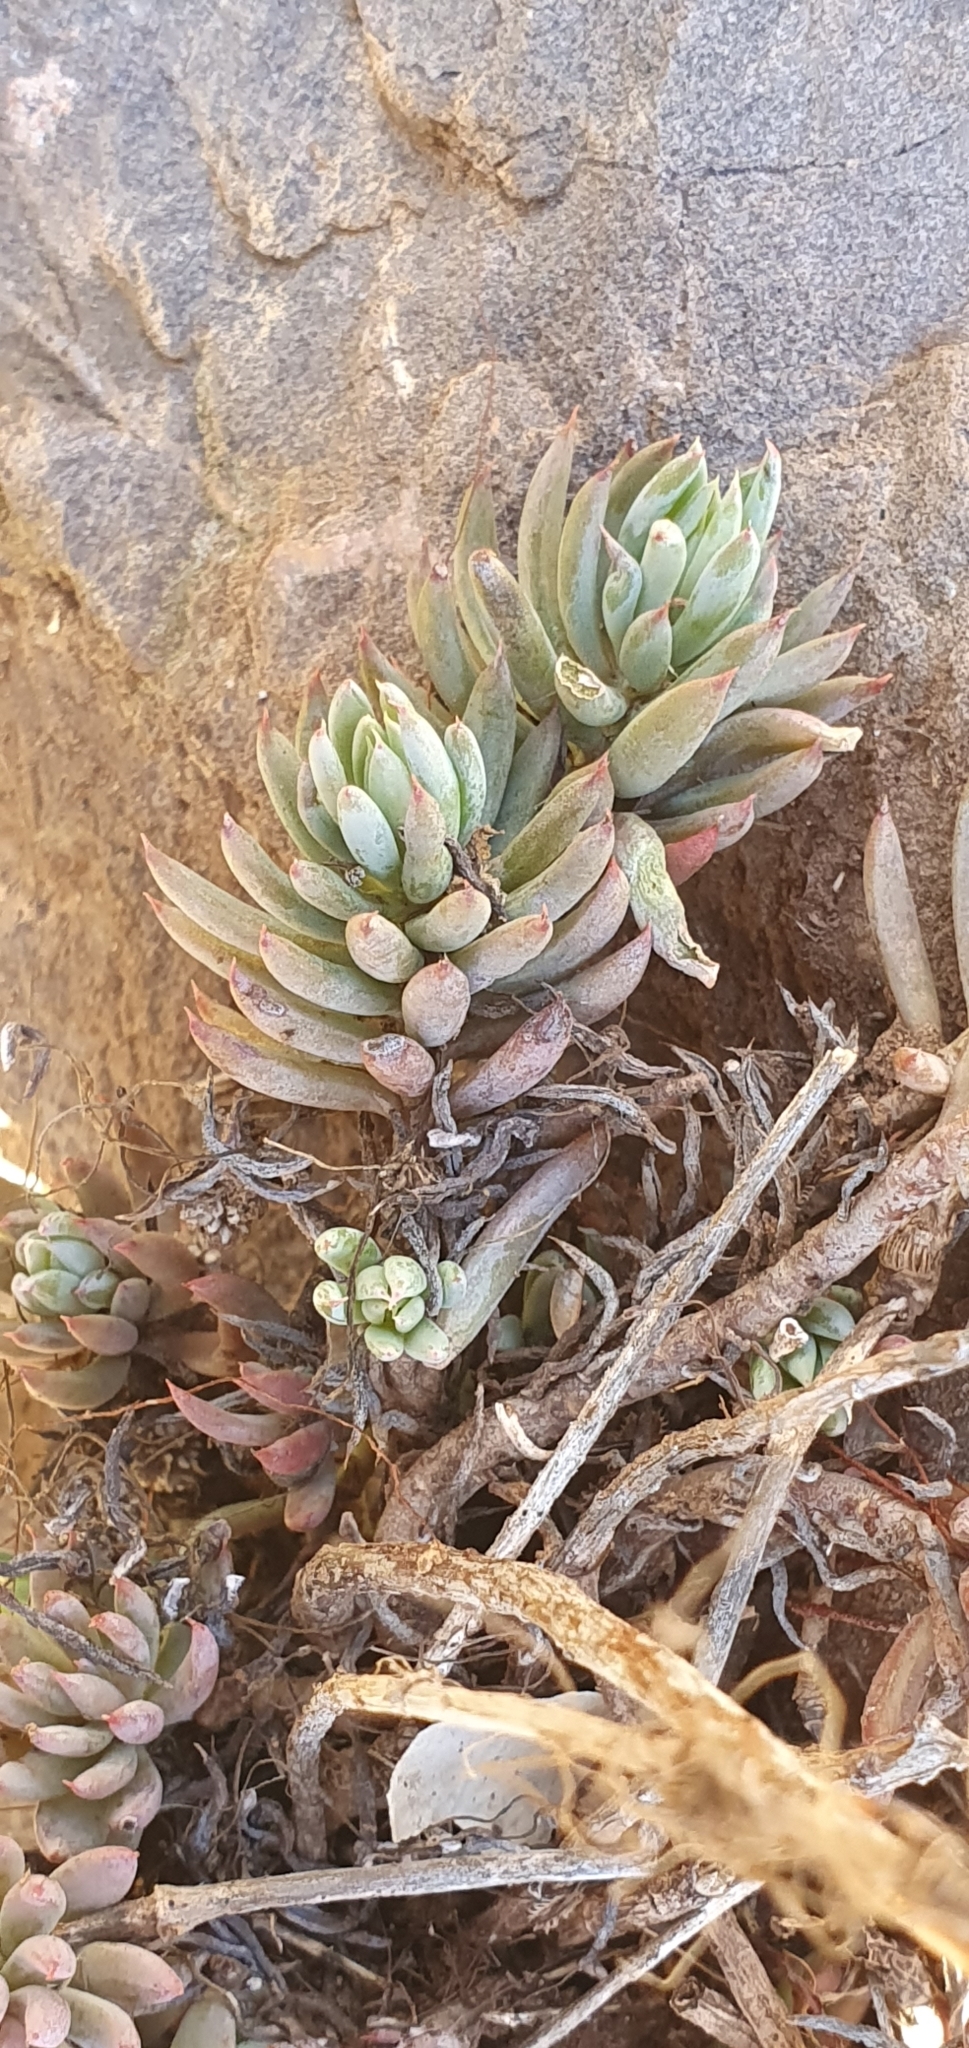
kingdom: Plantae
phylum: Tracheophyta
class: Magnoliopsida
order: Saxifragales
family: Crassulaceae
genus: Petrosedum
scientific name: Petrosedum sediforme
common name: Pale stonecrop
